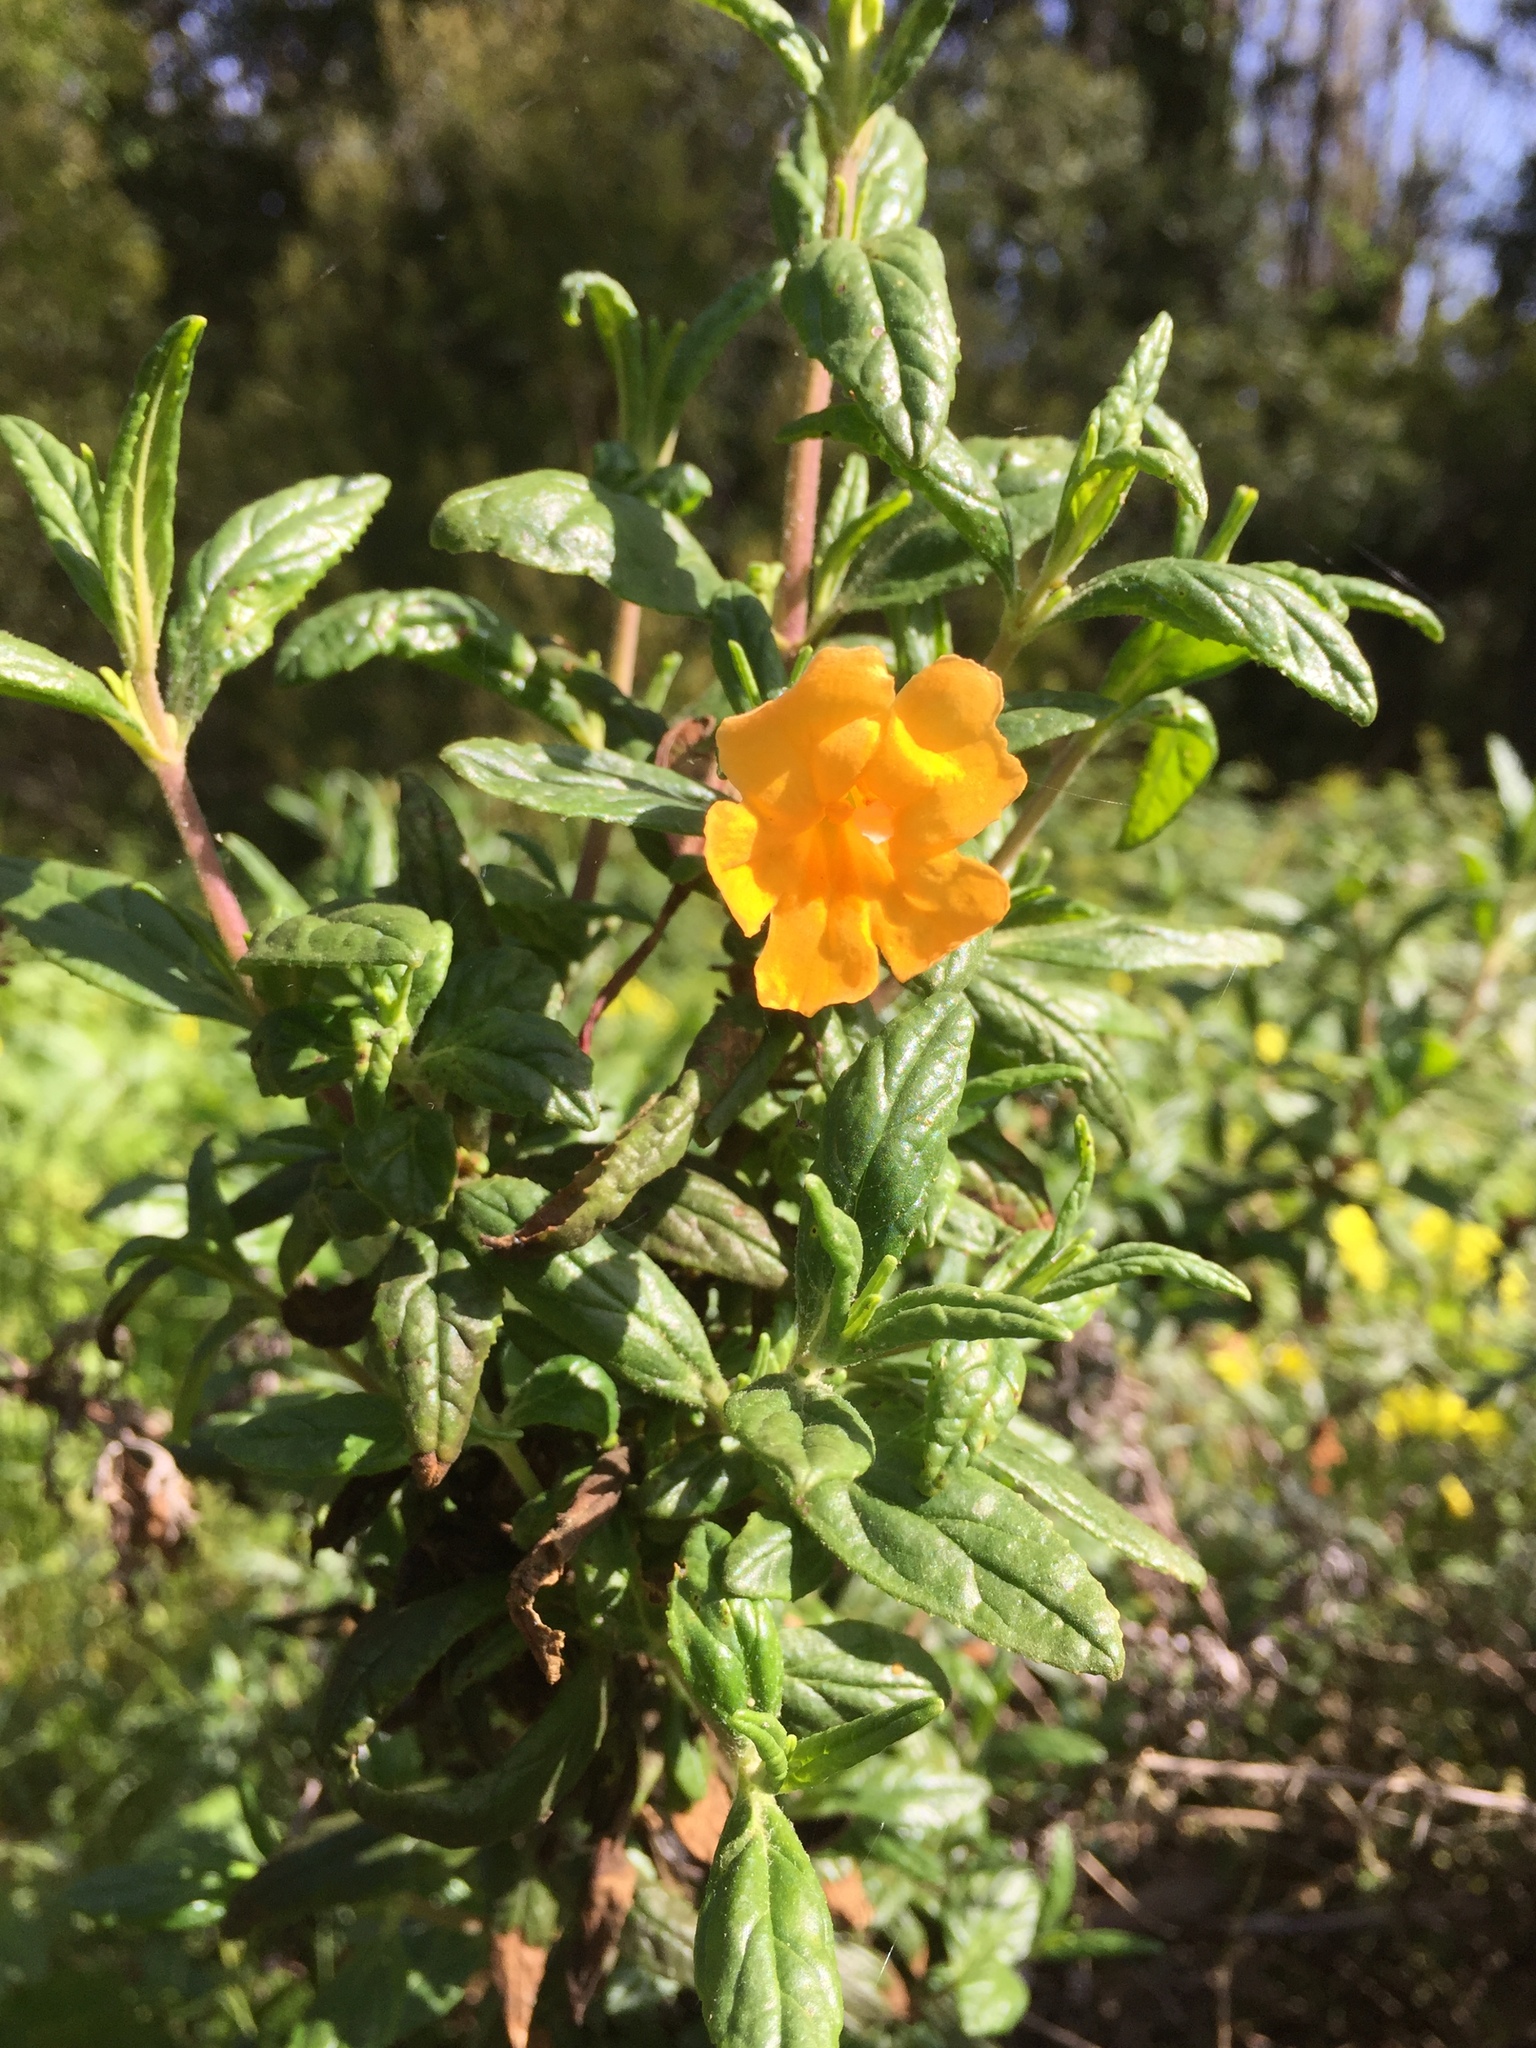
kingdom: Plantae
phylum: Tracheophyta
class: Magnoliopsida
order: Lamiales
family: Phrymaceae
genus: Diplacus
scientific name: Diplacus aurantiacus
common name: Bush monkey-flower
